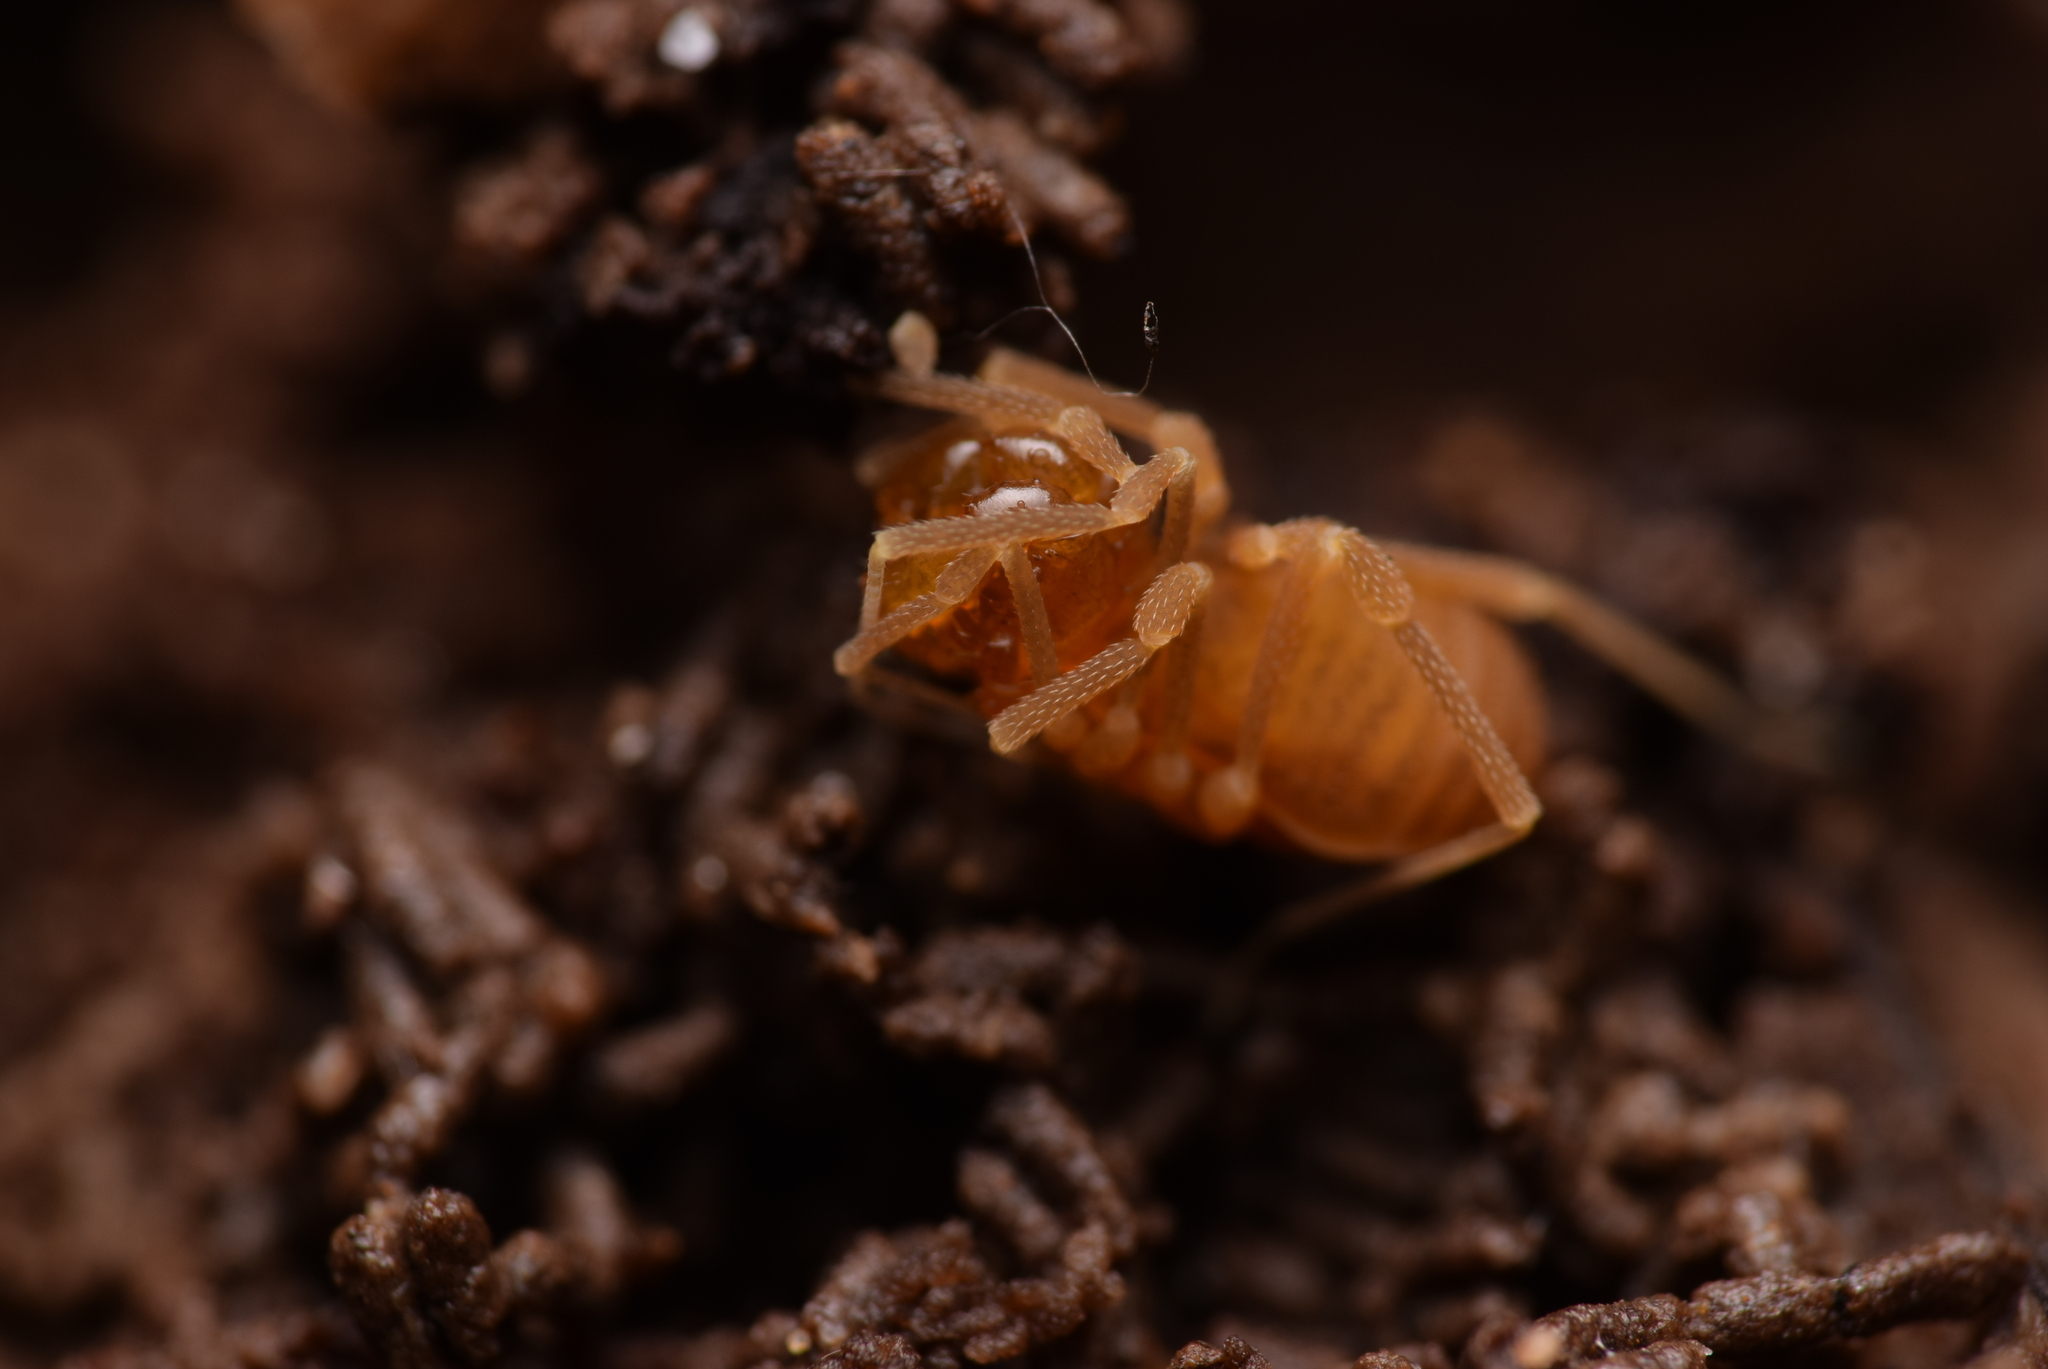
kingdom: Animalia
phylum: Arthropoda
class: Arachnida
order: Opiliones
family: Cladonychiidae
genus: Holoscotolemon
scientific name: Holoscotolemon querilhaci
